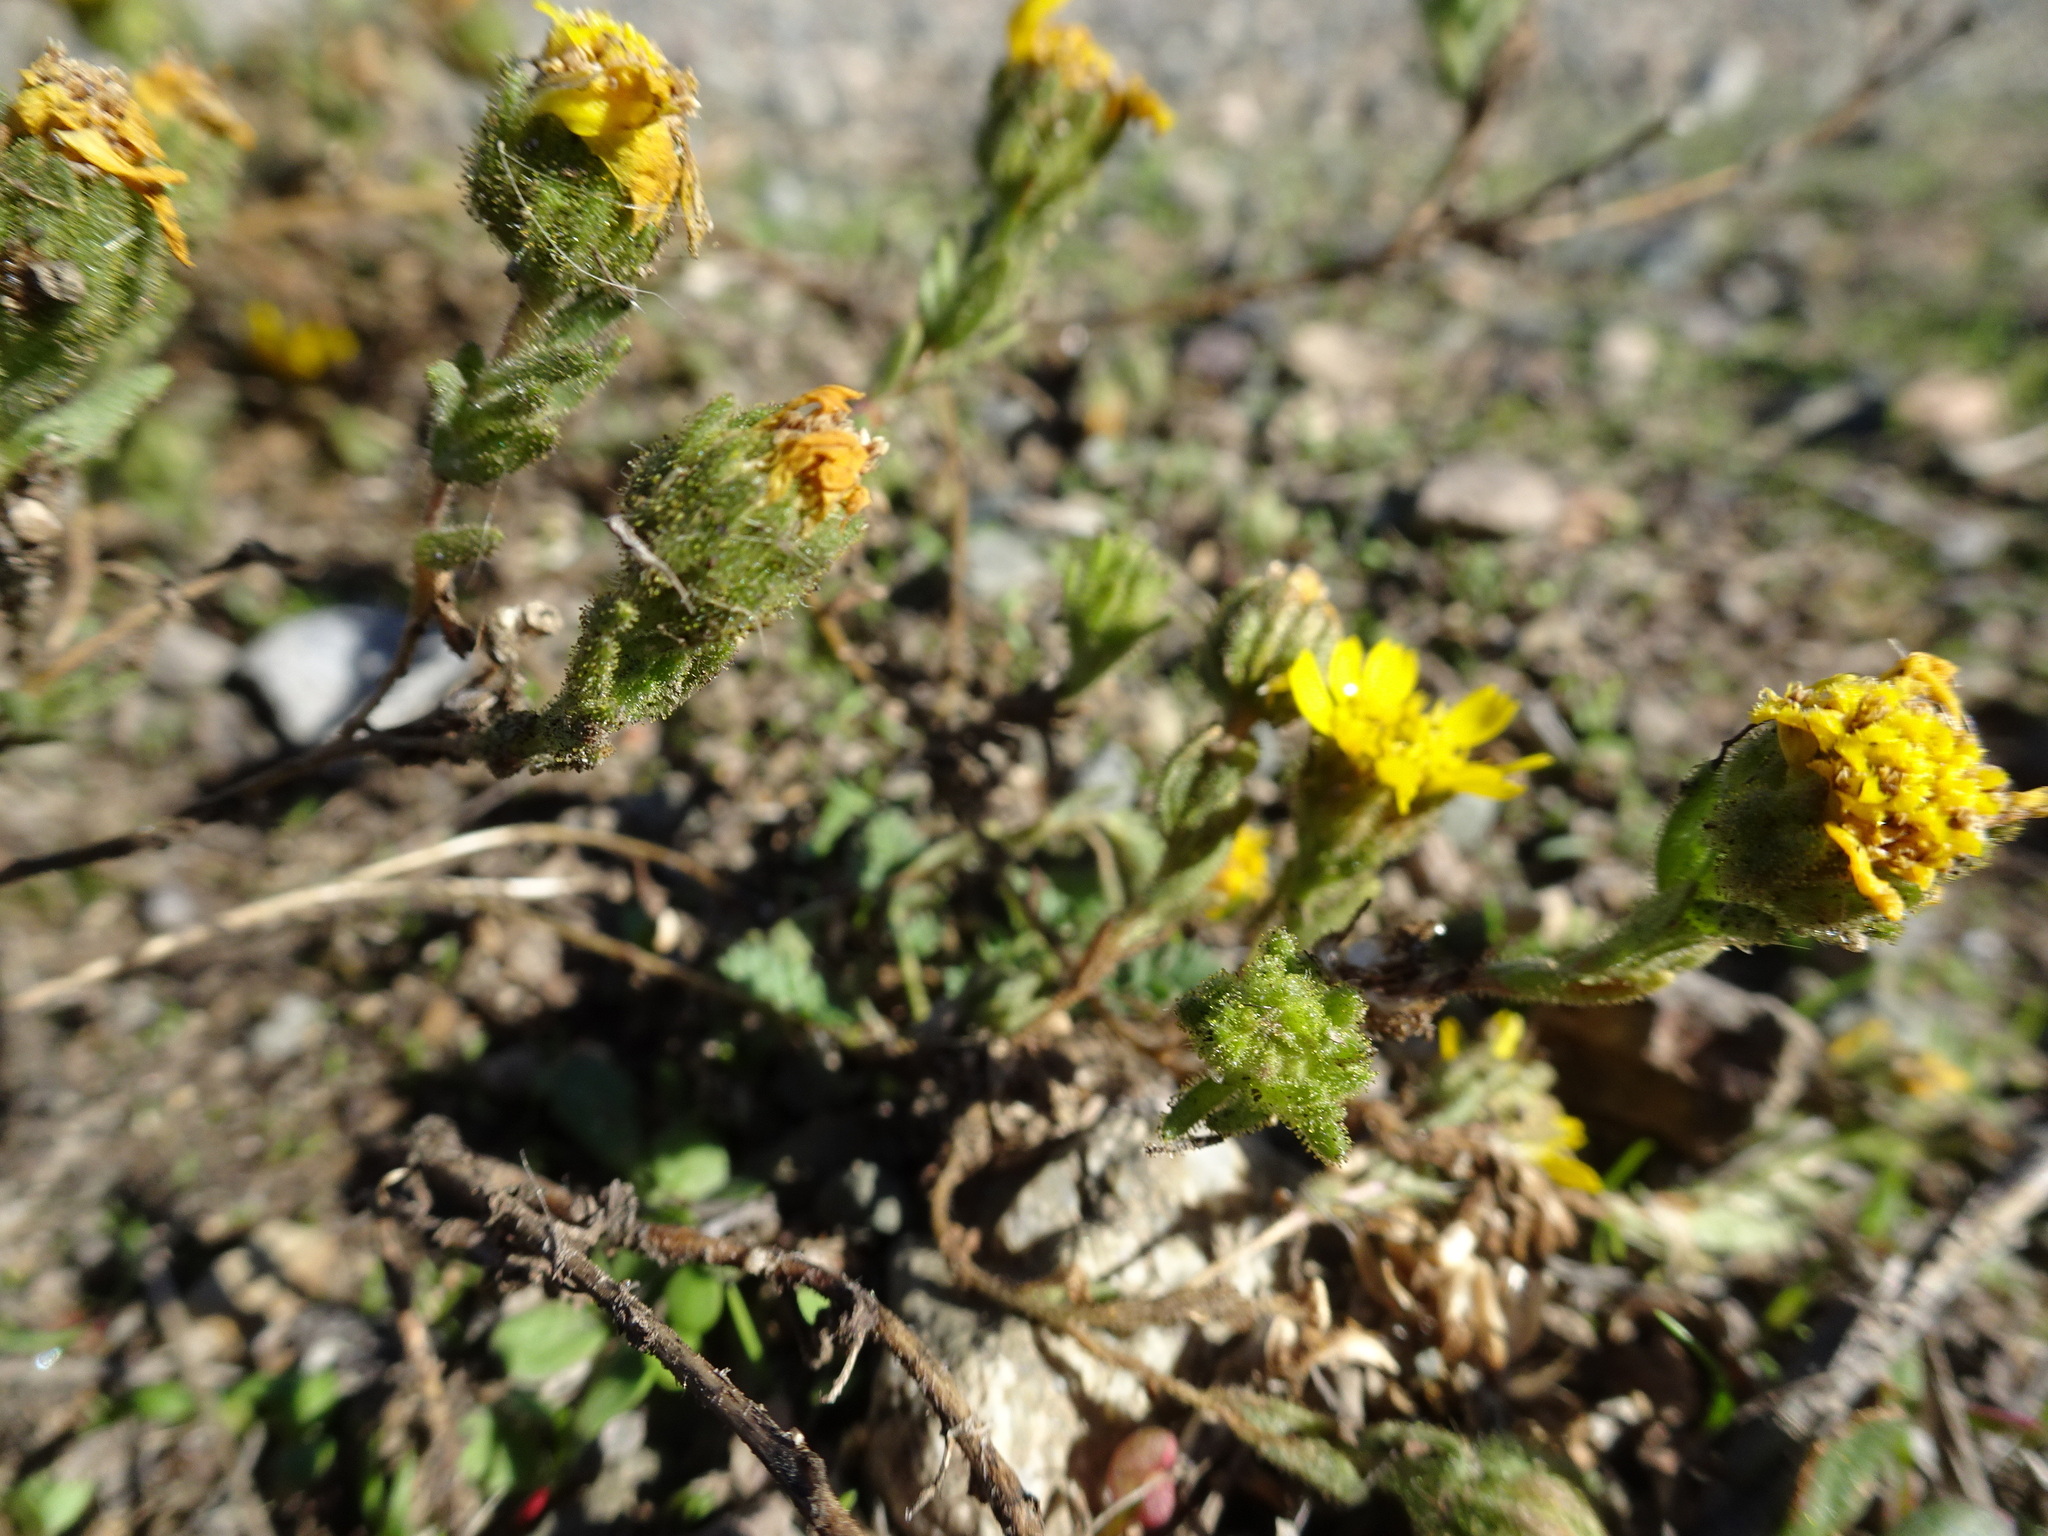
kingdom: Plantae
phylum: Tracheophyta
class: Magnoliopsida
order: Asterales
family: Asteraceae
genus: Deinandra
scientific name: Deinandra corymbosa
